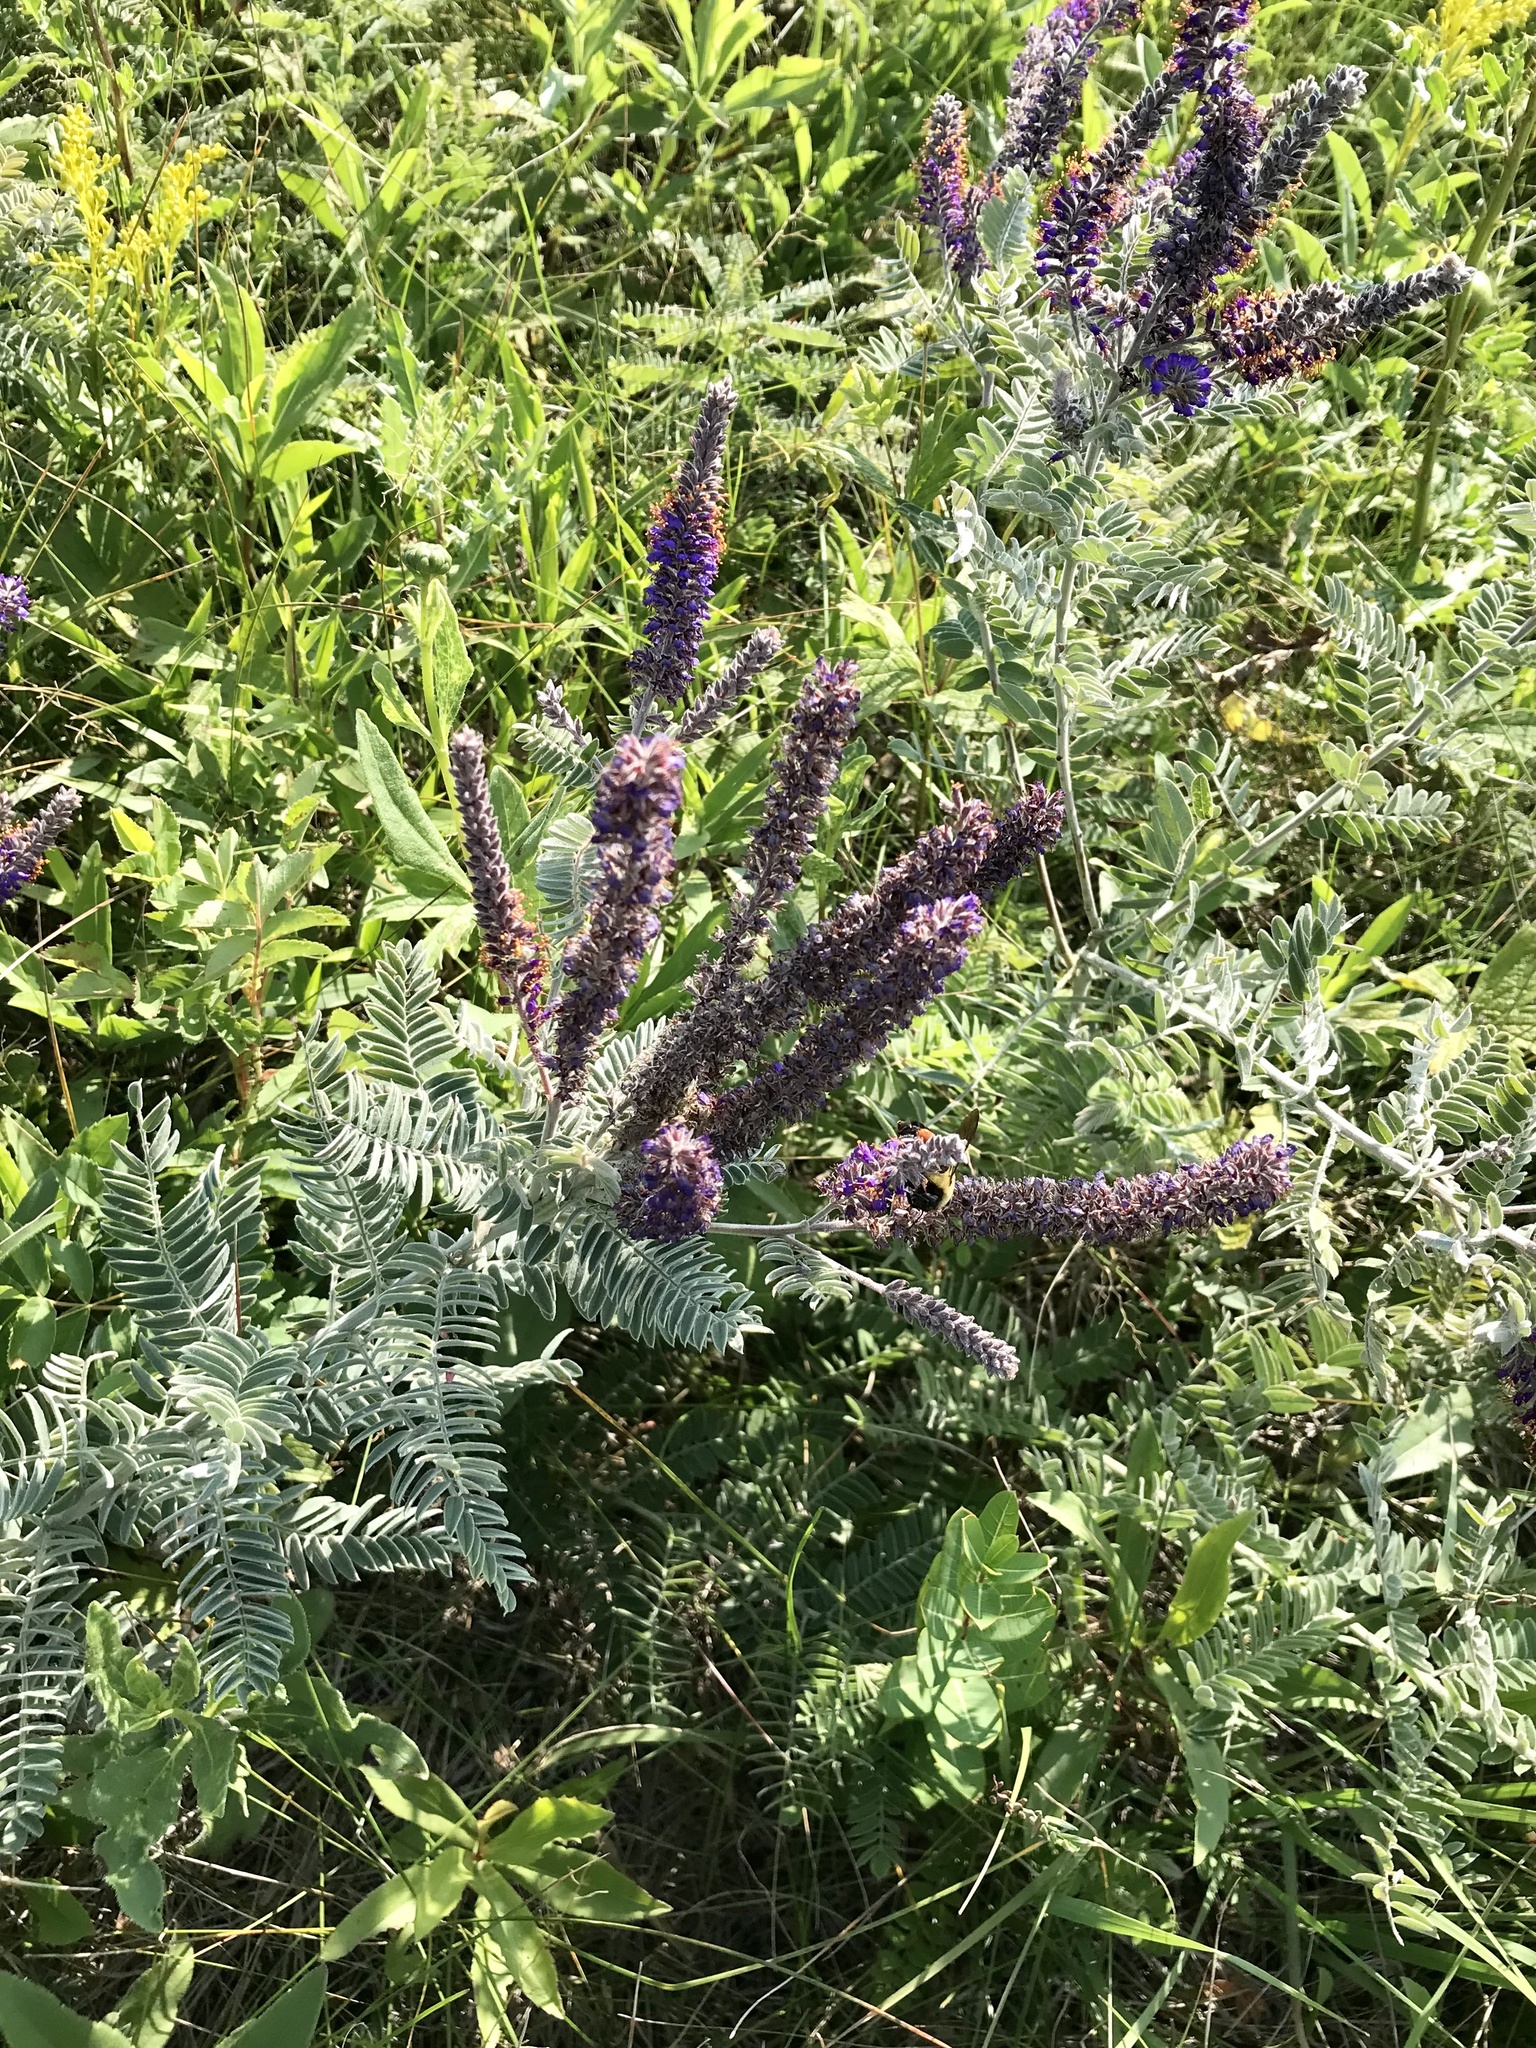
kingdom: Plantae
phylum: Tracheophyta
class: Magnoliopsida
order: Fabales
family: Fabaceae
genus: Amorpha
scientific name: Amorpha canescens
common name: Leadplant
